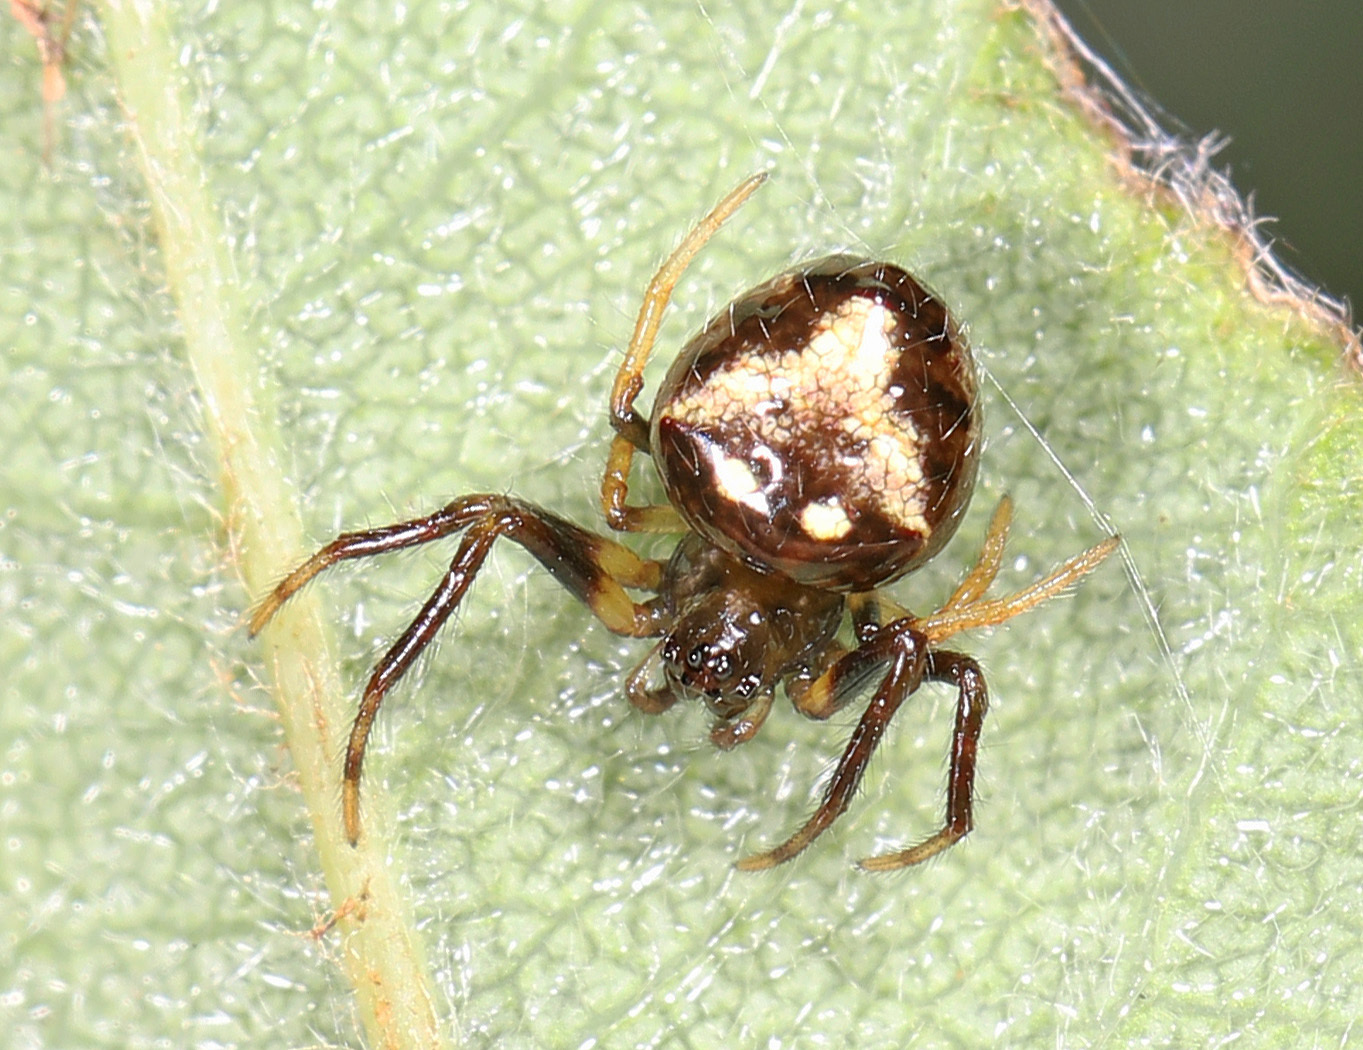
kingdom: Animalia
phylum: Arthropoda
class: Arachnida
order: Araneae
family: Araneidae
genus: Verrucosa
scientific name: Verrucosa arenata
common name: Orb weavers
